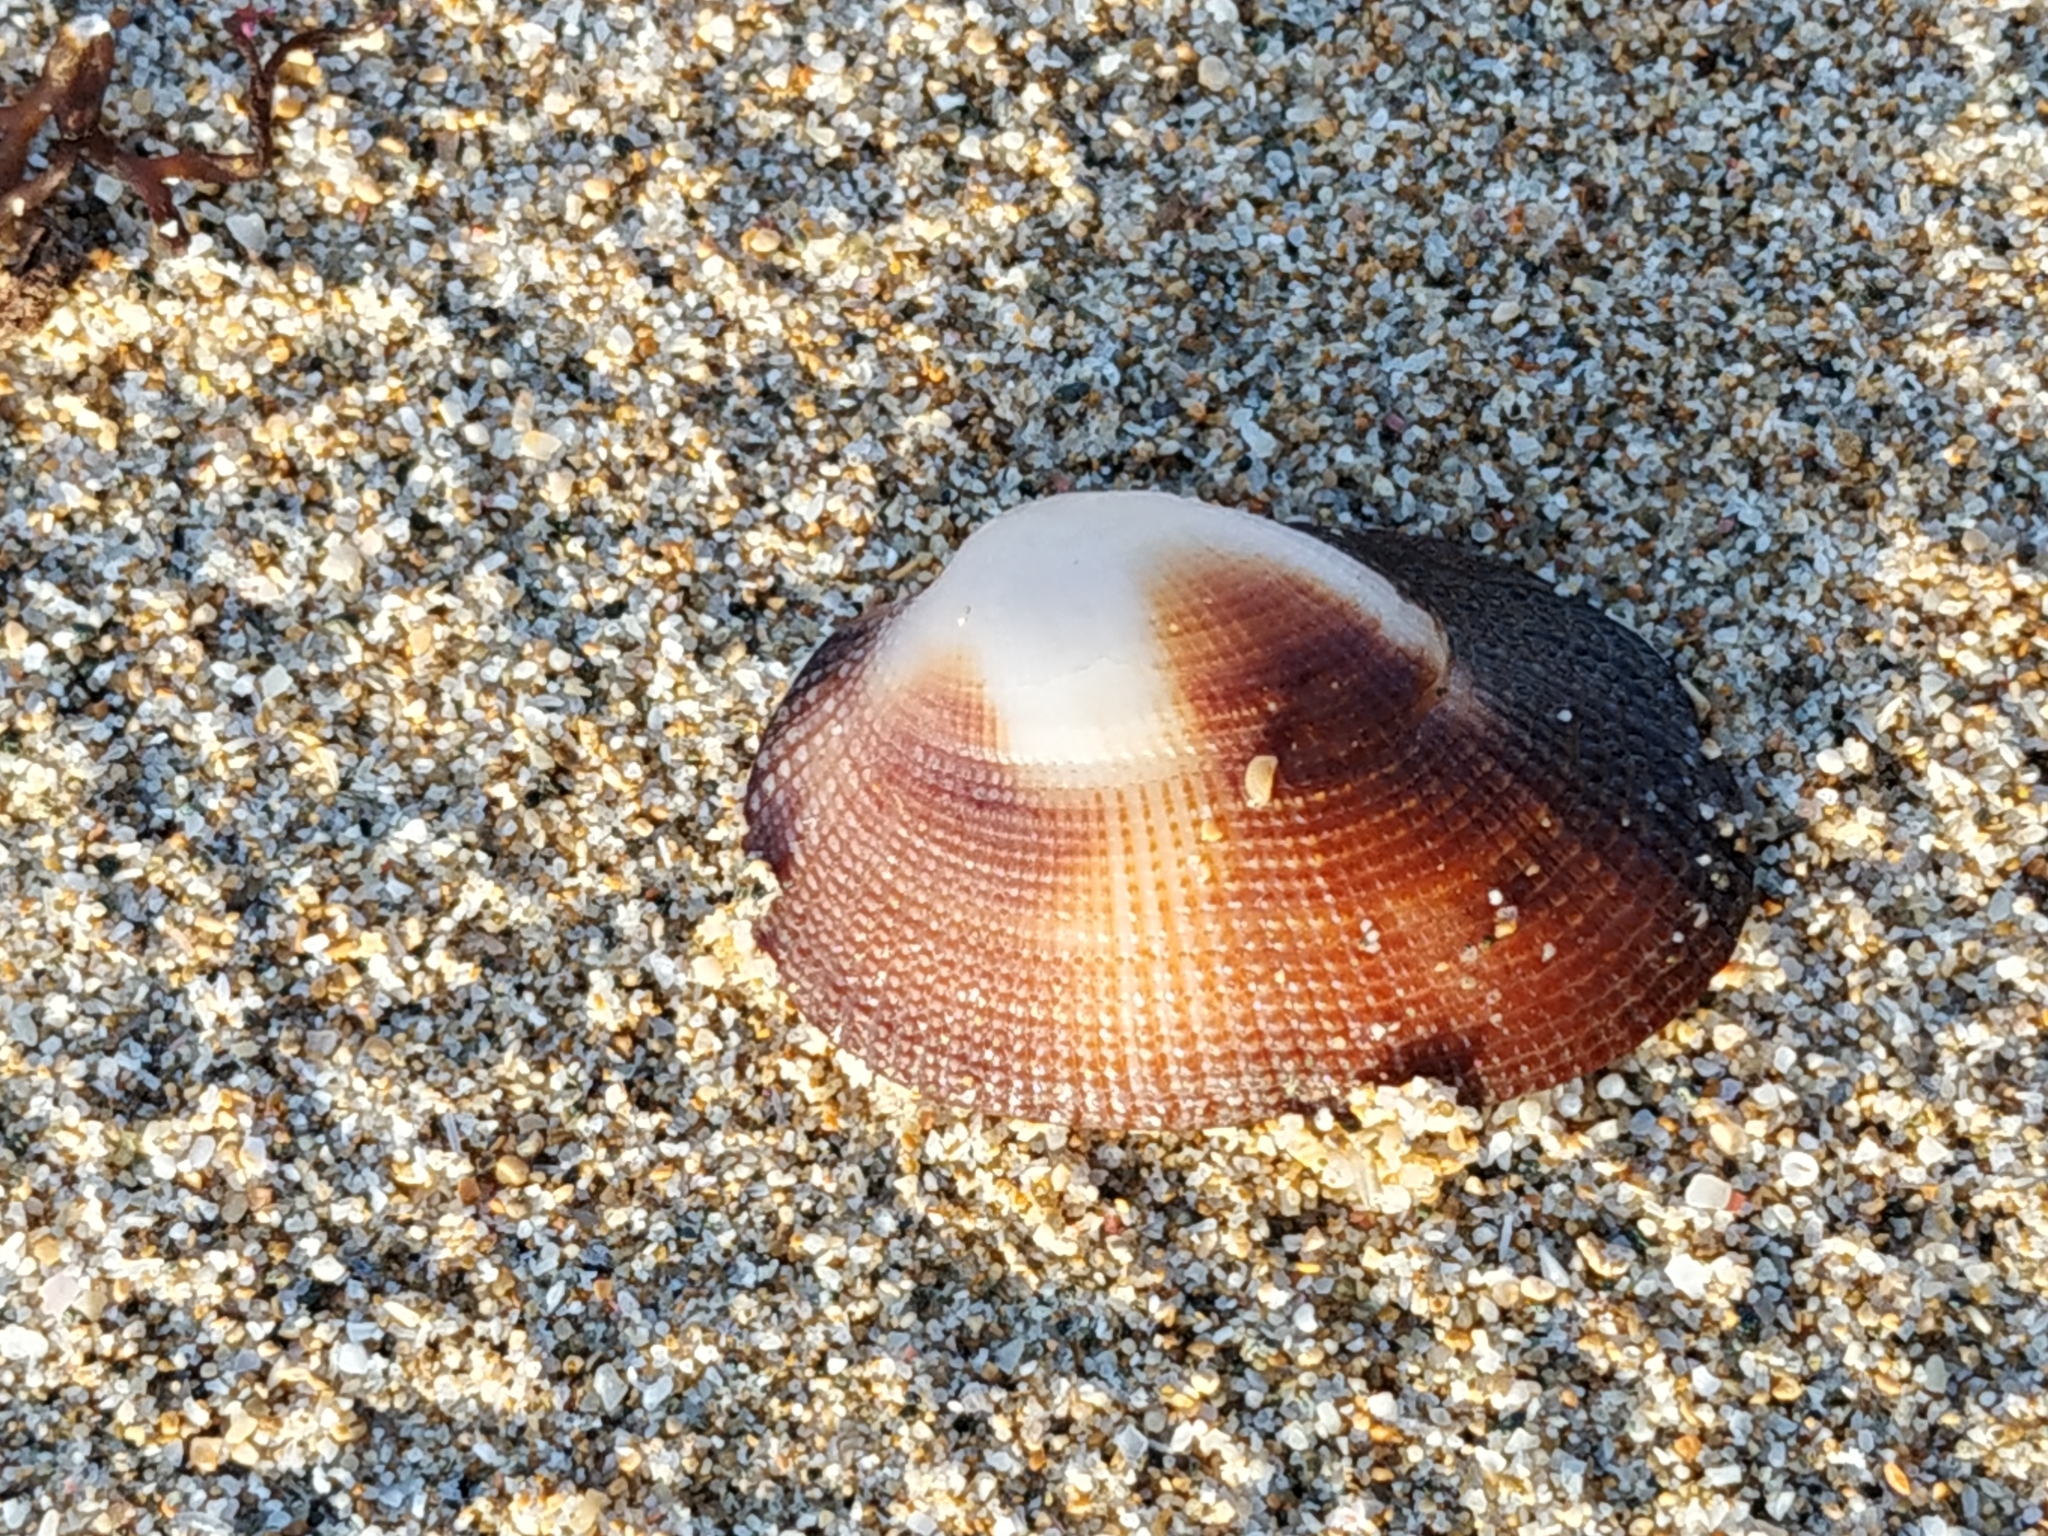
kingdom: Animalia
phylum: Mollusca
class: Bivalvia
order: Arcida
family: Arcidae
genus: Barbatia
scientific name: Barbatia amygdalumtostum
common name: Burnt-almond ark
